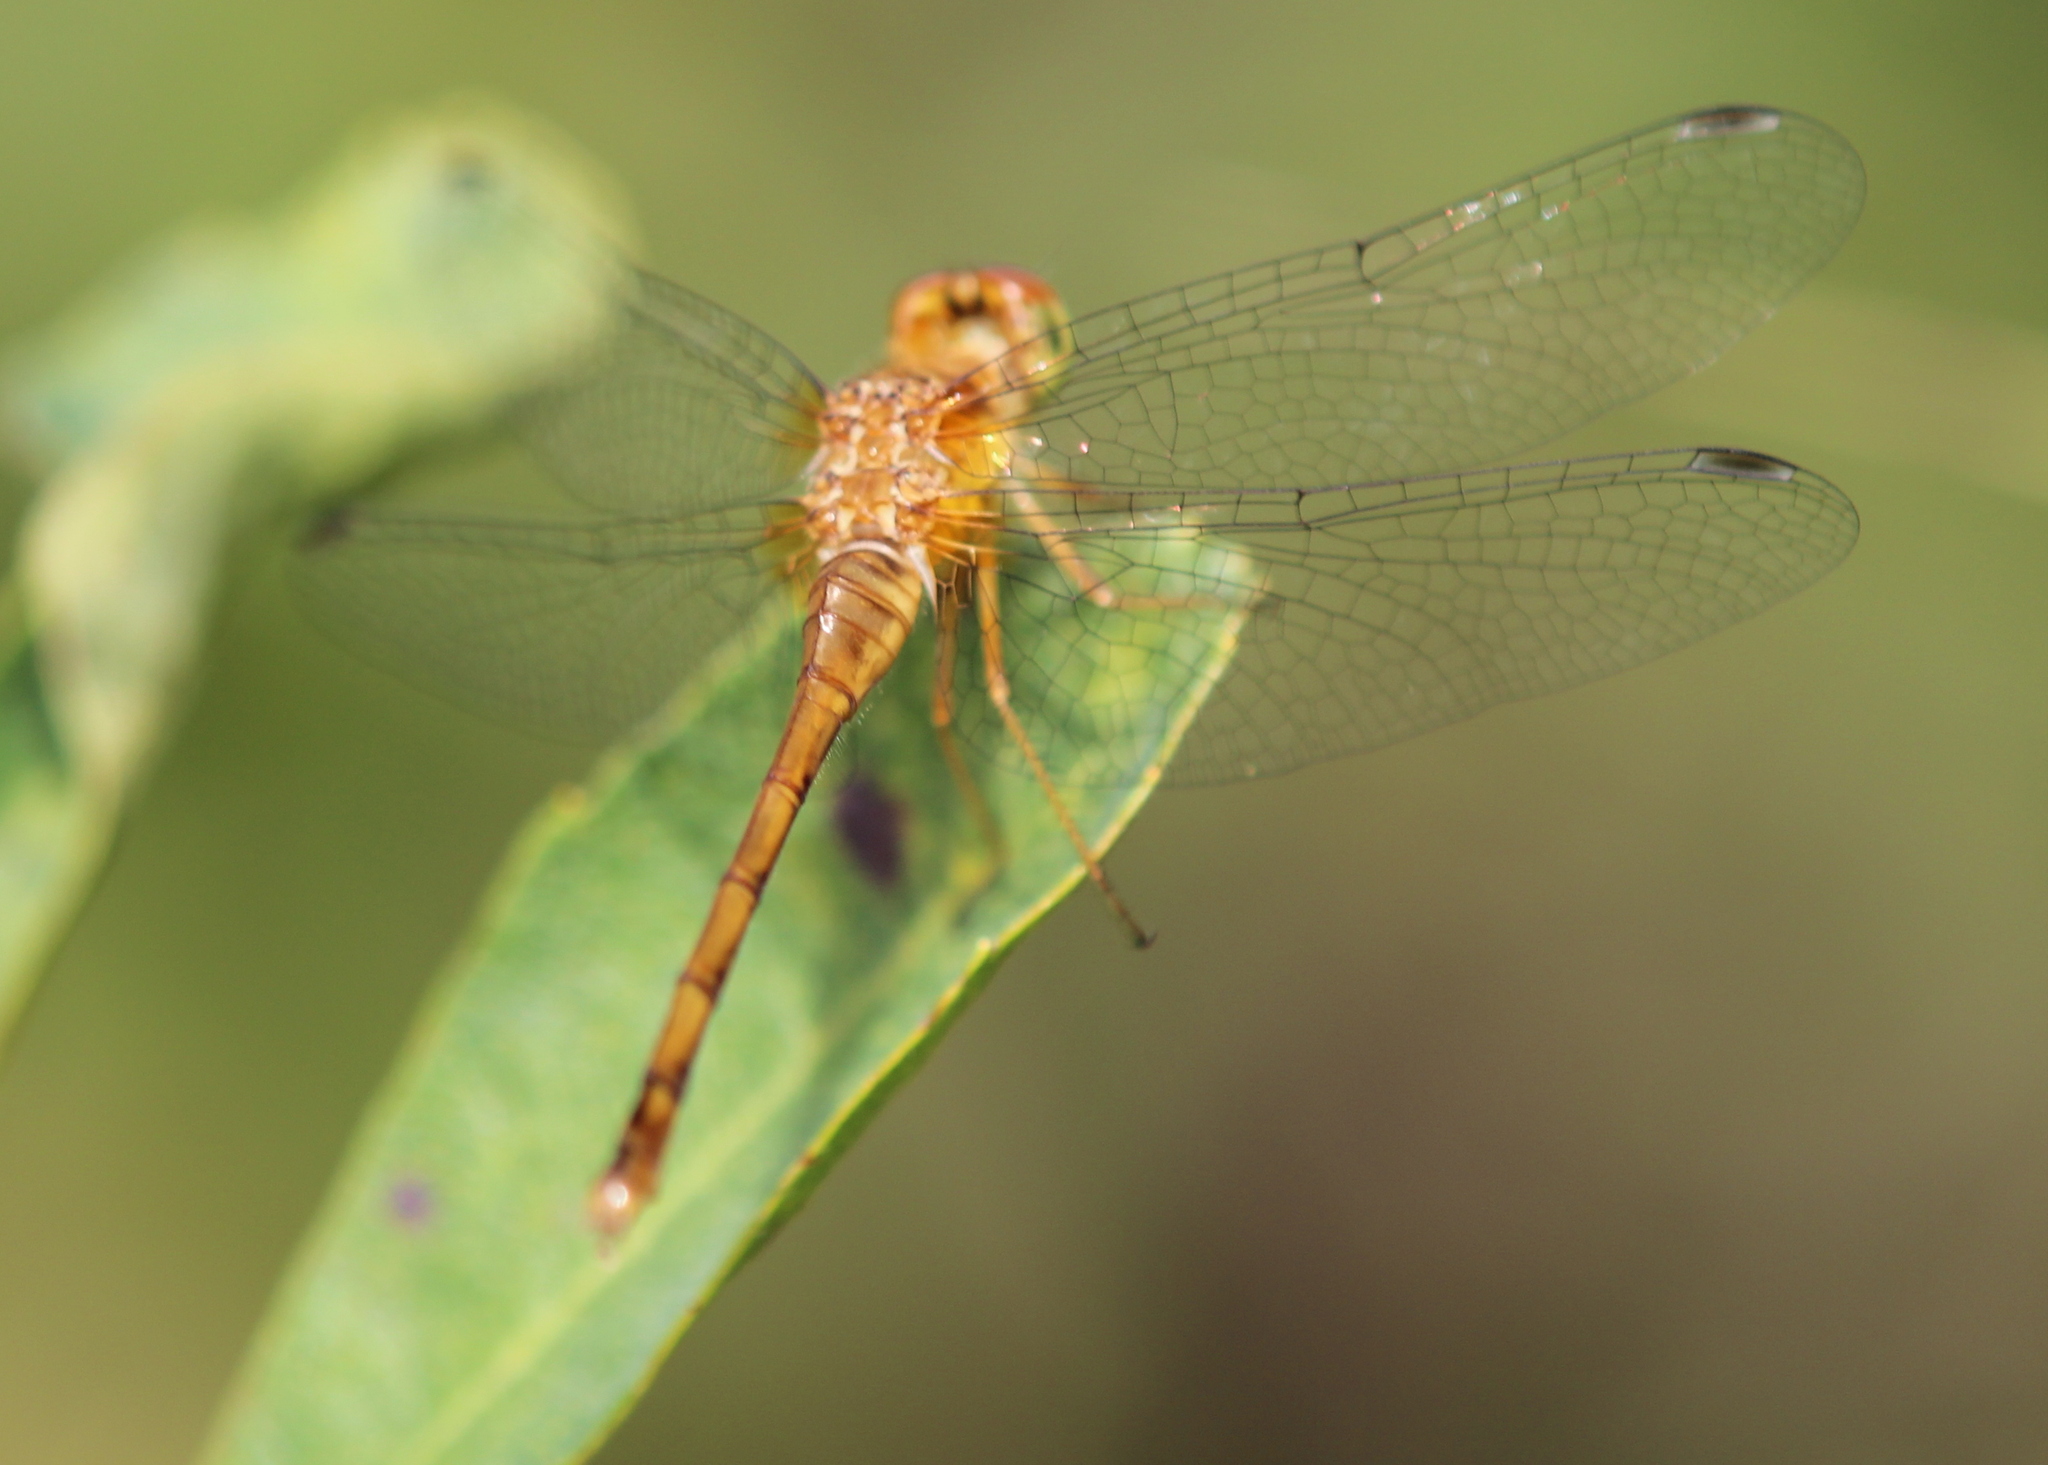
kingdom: Animalia
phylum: Arthropoda
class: Insecta
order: Odonata
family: Libellulidae
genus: Sympetrum
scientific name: Sympetrum vicinum
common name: Autumn meadowhawk
